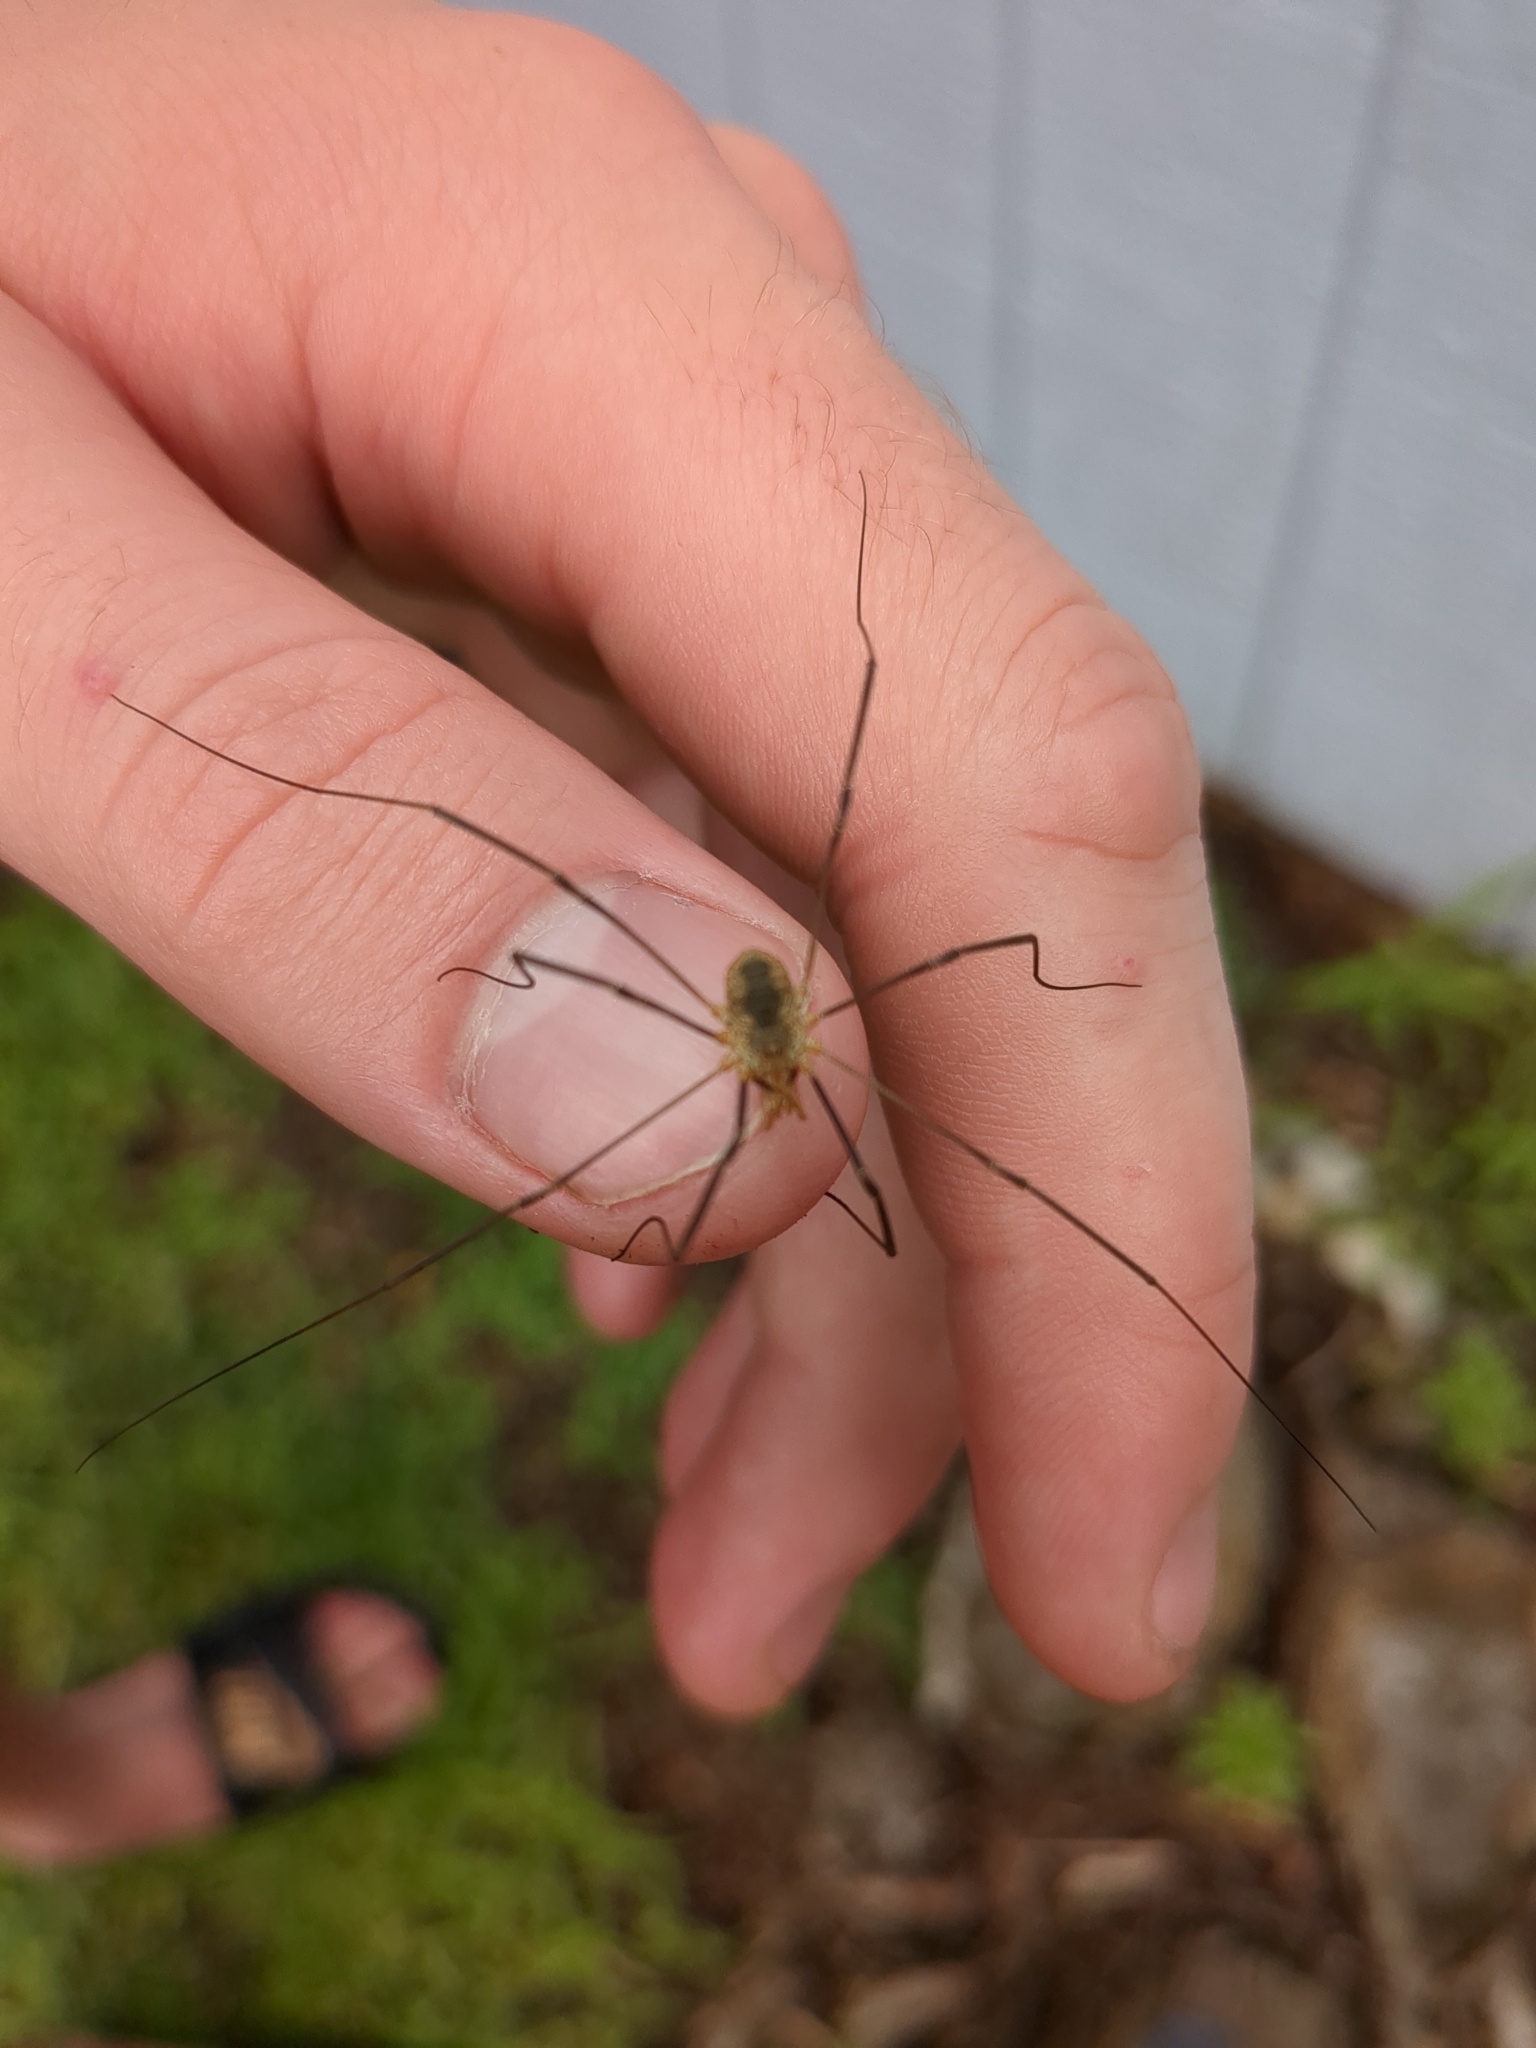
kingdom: Animalia
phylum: Arthropoda
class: Arachnida
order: Opiliones
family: Phalangiidae
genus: Phalangium
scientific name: Phalangium opilio
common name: Daddy longleg
